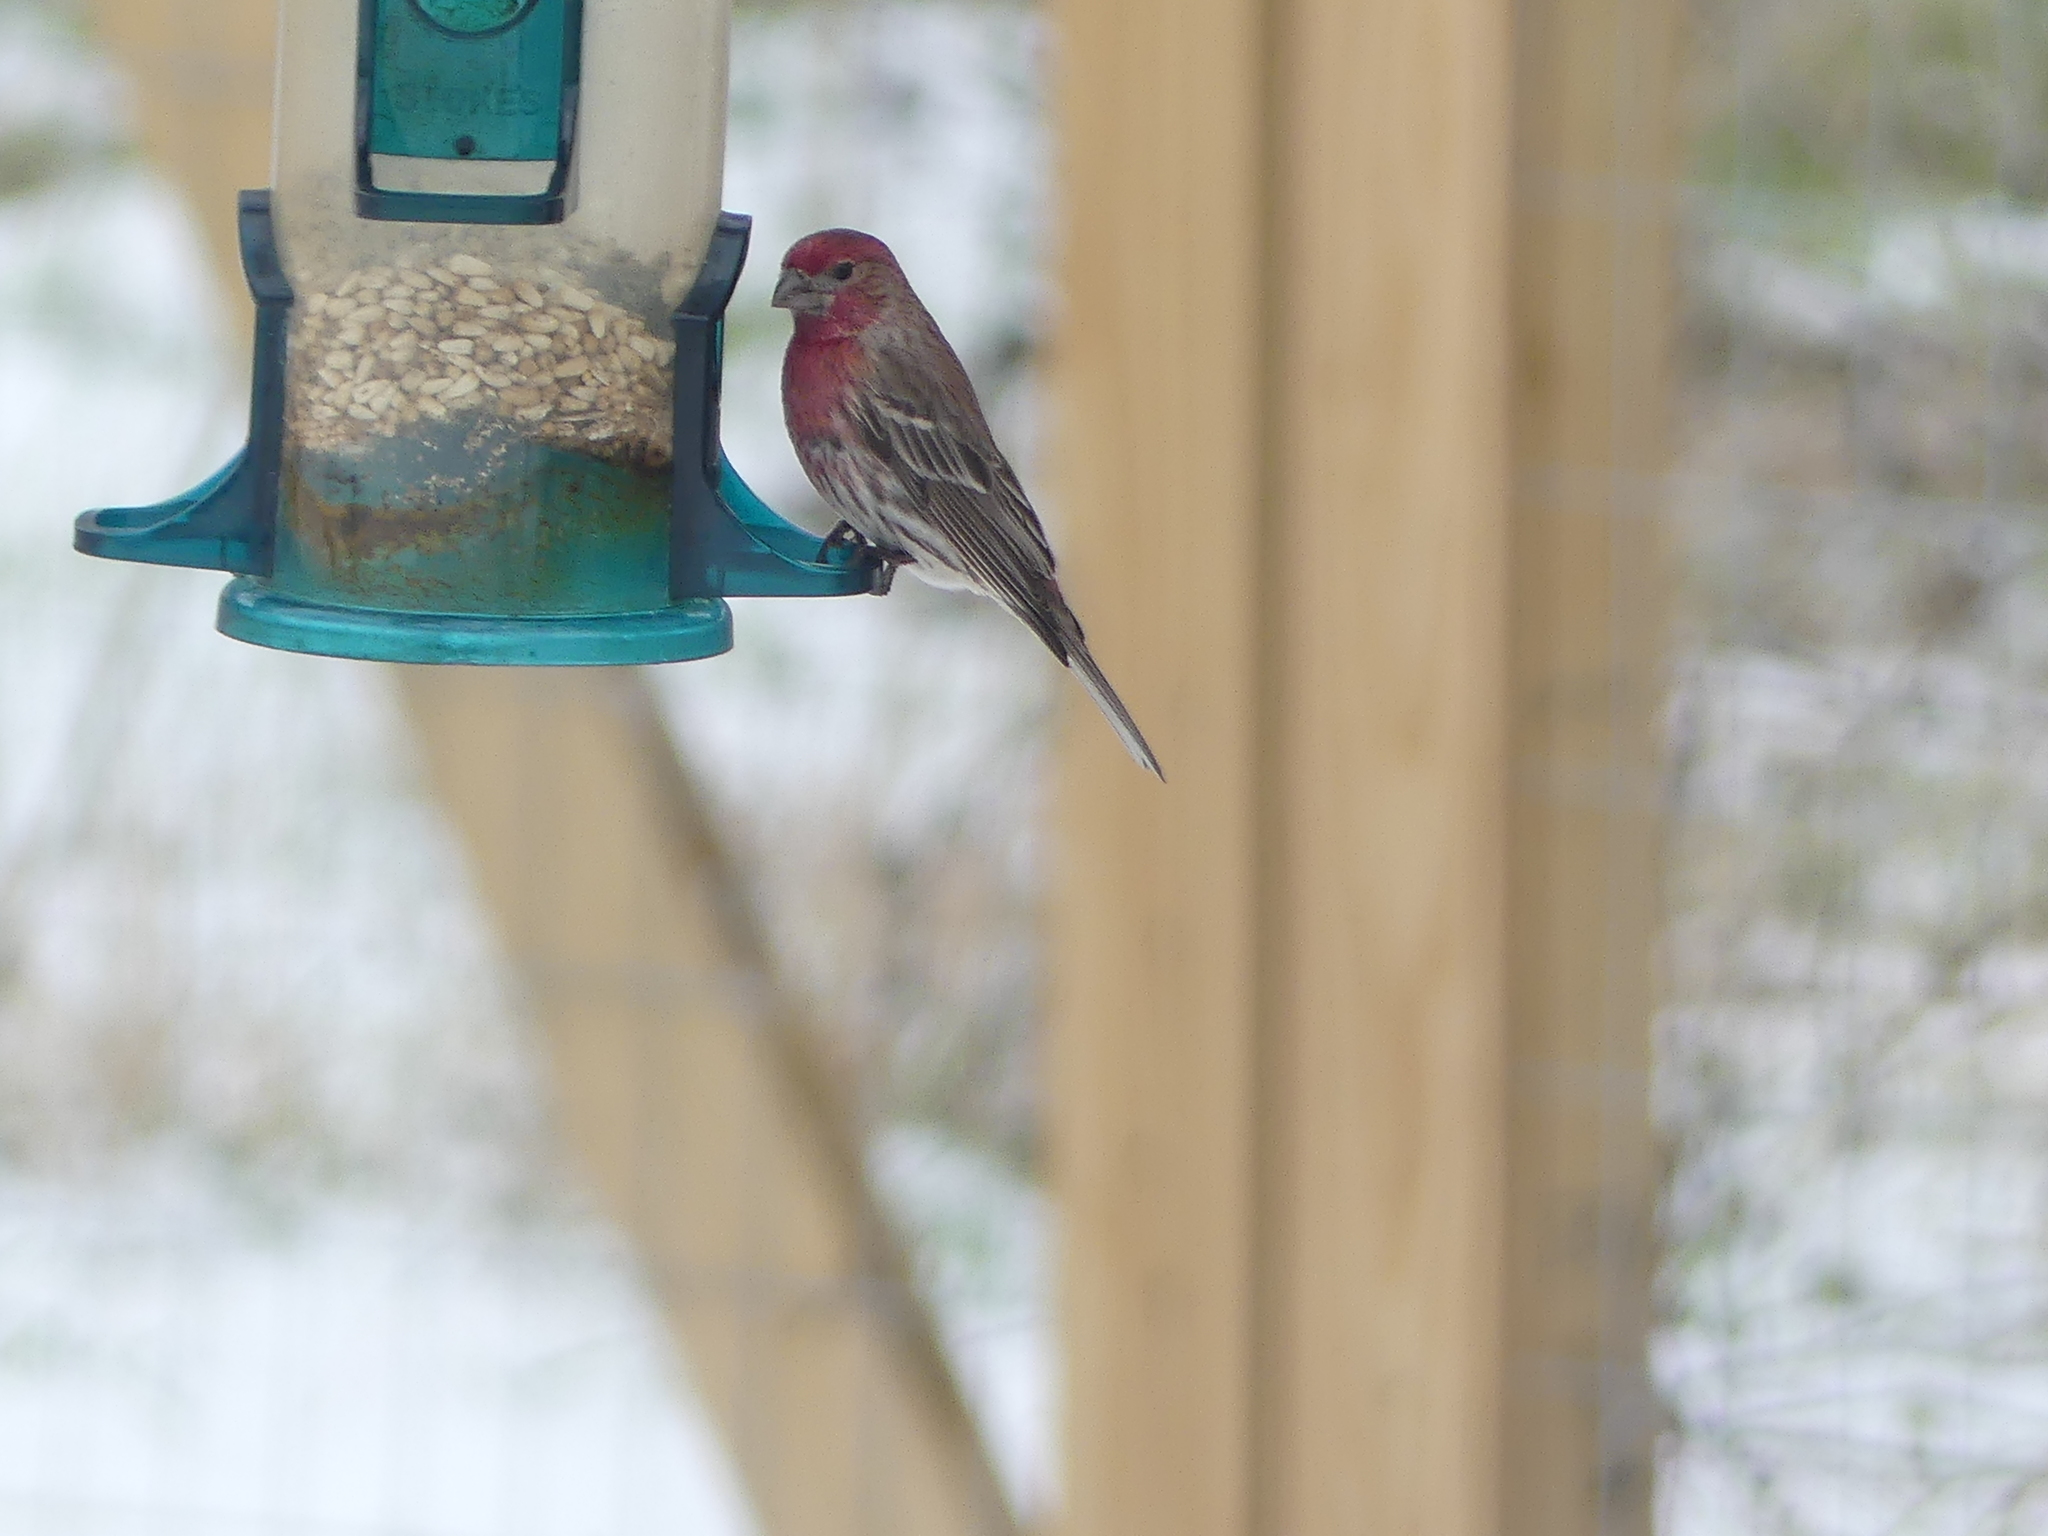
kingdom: Animalia
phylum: Chordata
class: Aves
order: Passeriformes
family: Fringillidae
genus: Haemorhous
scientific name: Haemorhous mexicanus
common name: House finch
